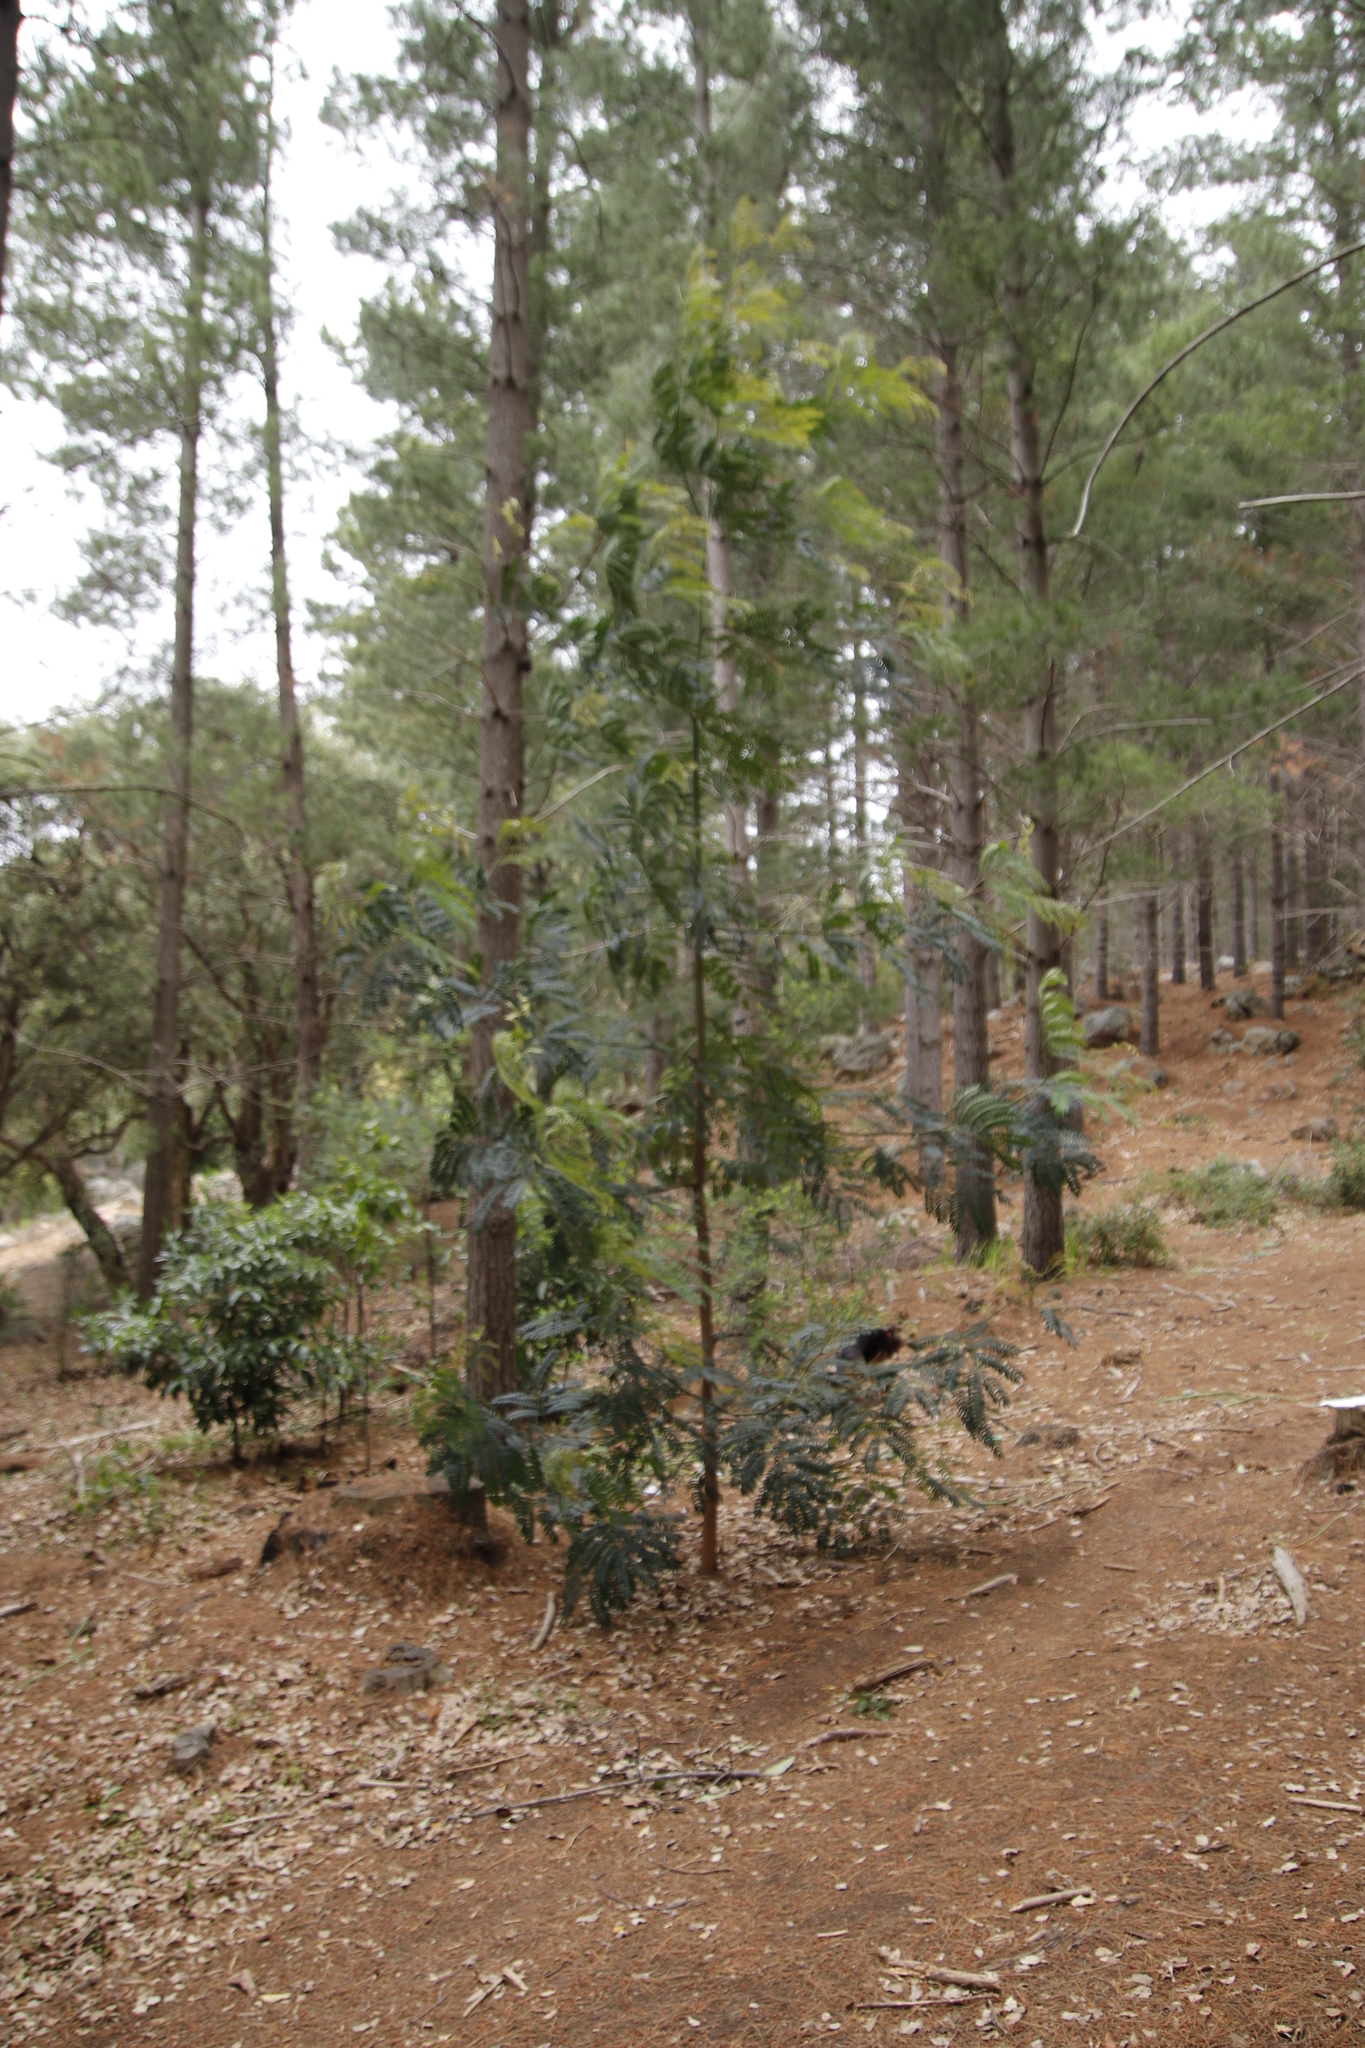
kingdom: Plantae
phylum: Tracheophyta
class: Magnoliopsida
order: Fabales
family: Fabaceae
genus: Acacia
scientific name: Acacia elata
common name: Cedar wattle
